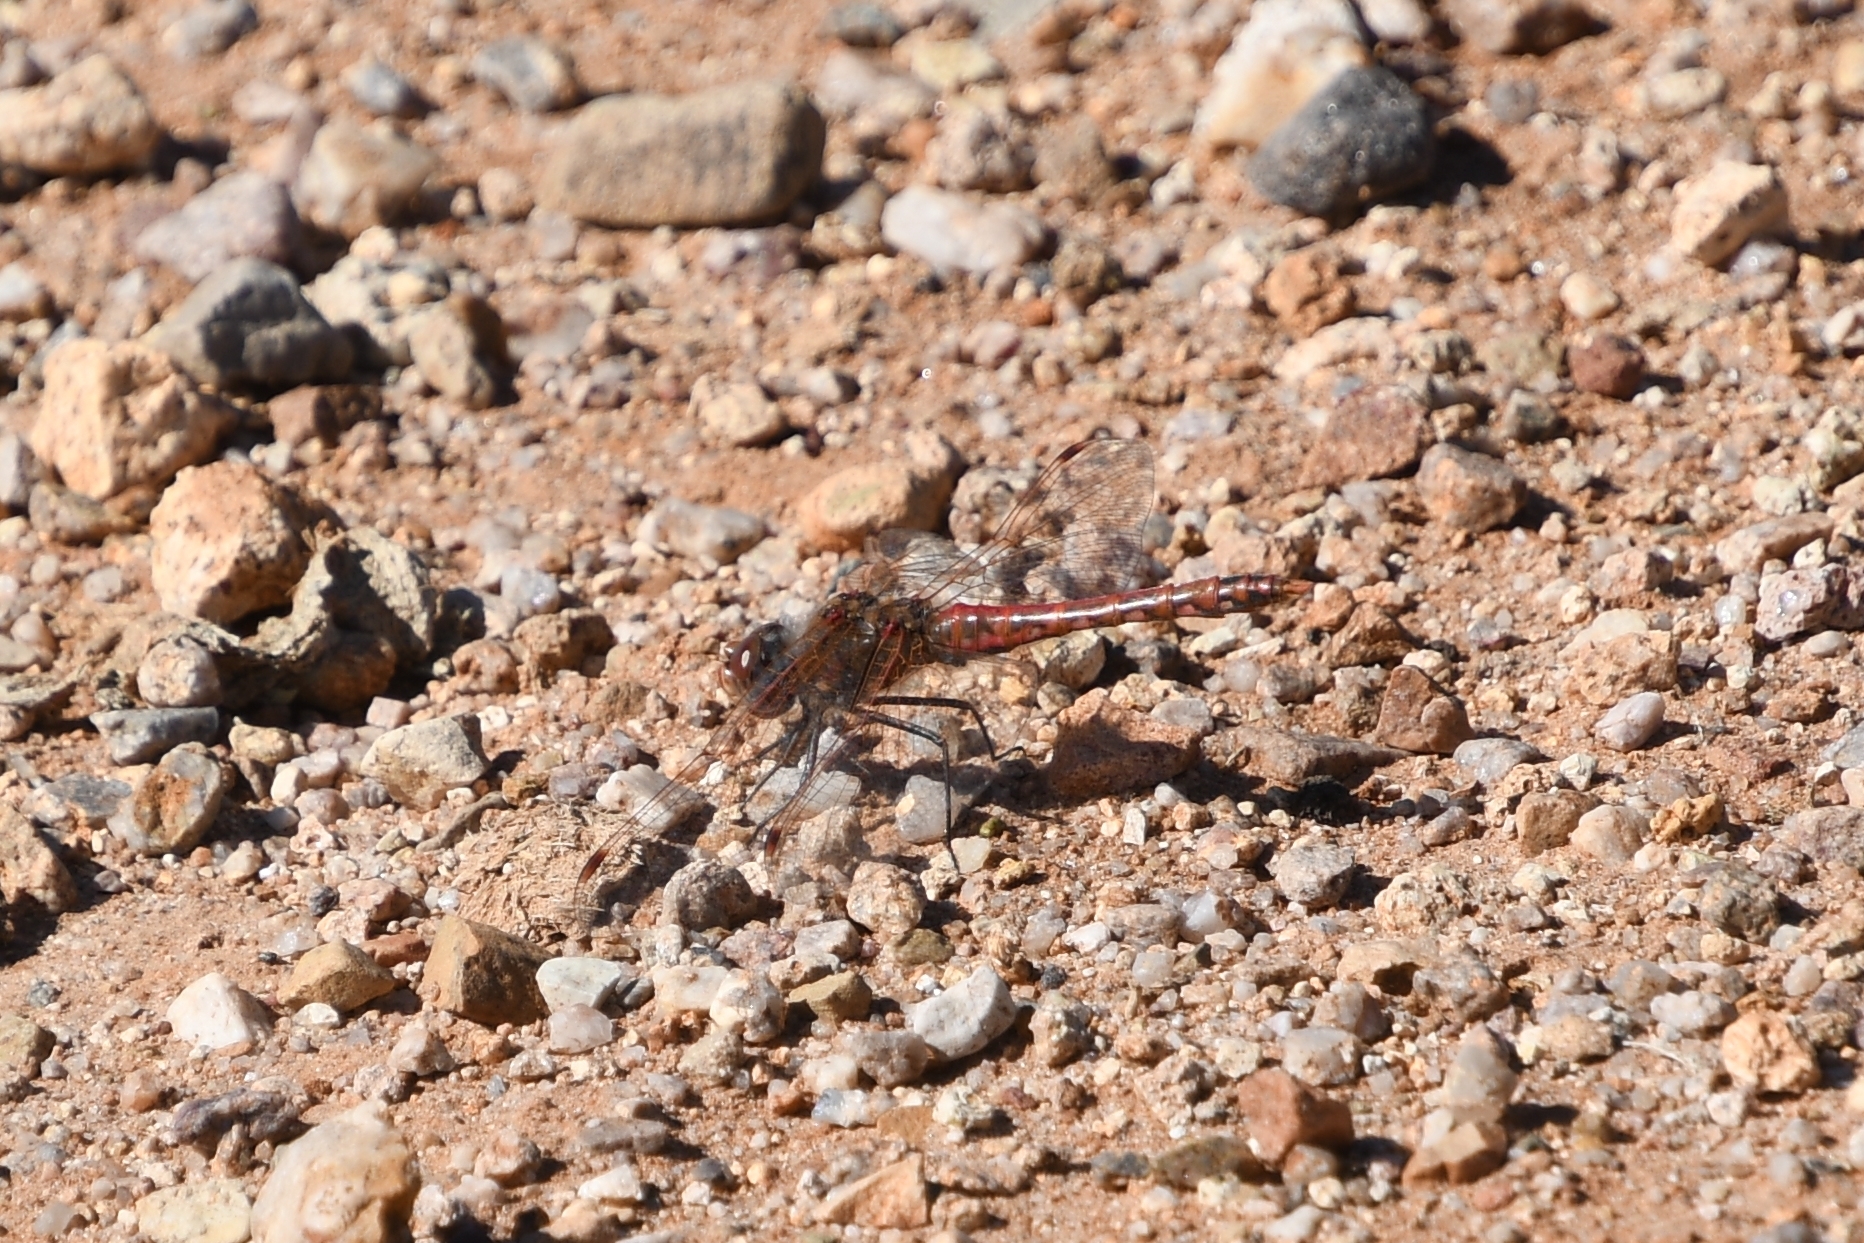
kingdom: Animalia
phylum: Arthropoda
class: Insecta
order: Odonata
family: Libellulidae
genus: Sympetrum
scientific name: Sympetrum corruptum
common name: Variegated meadowhawk
